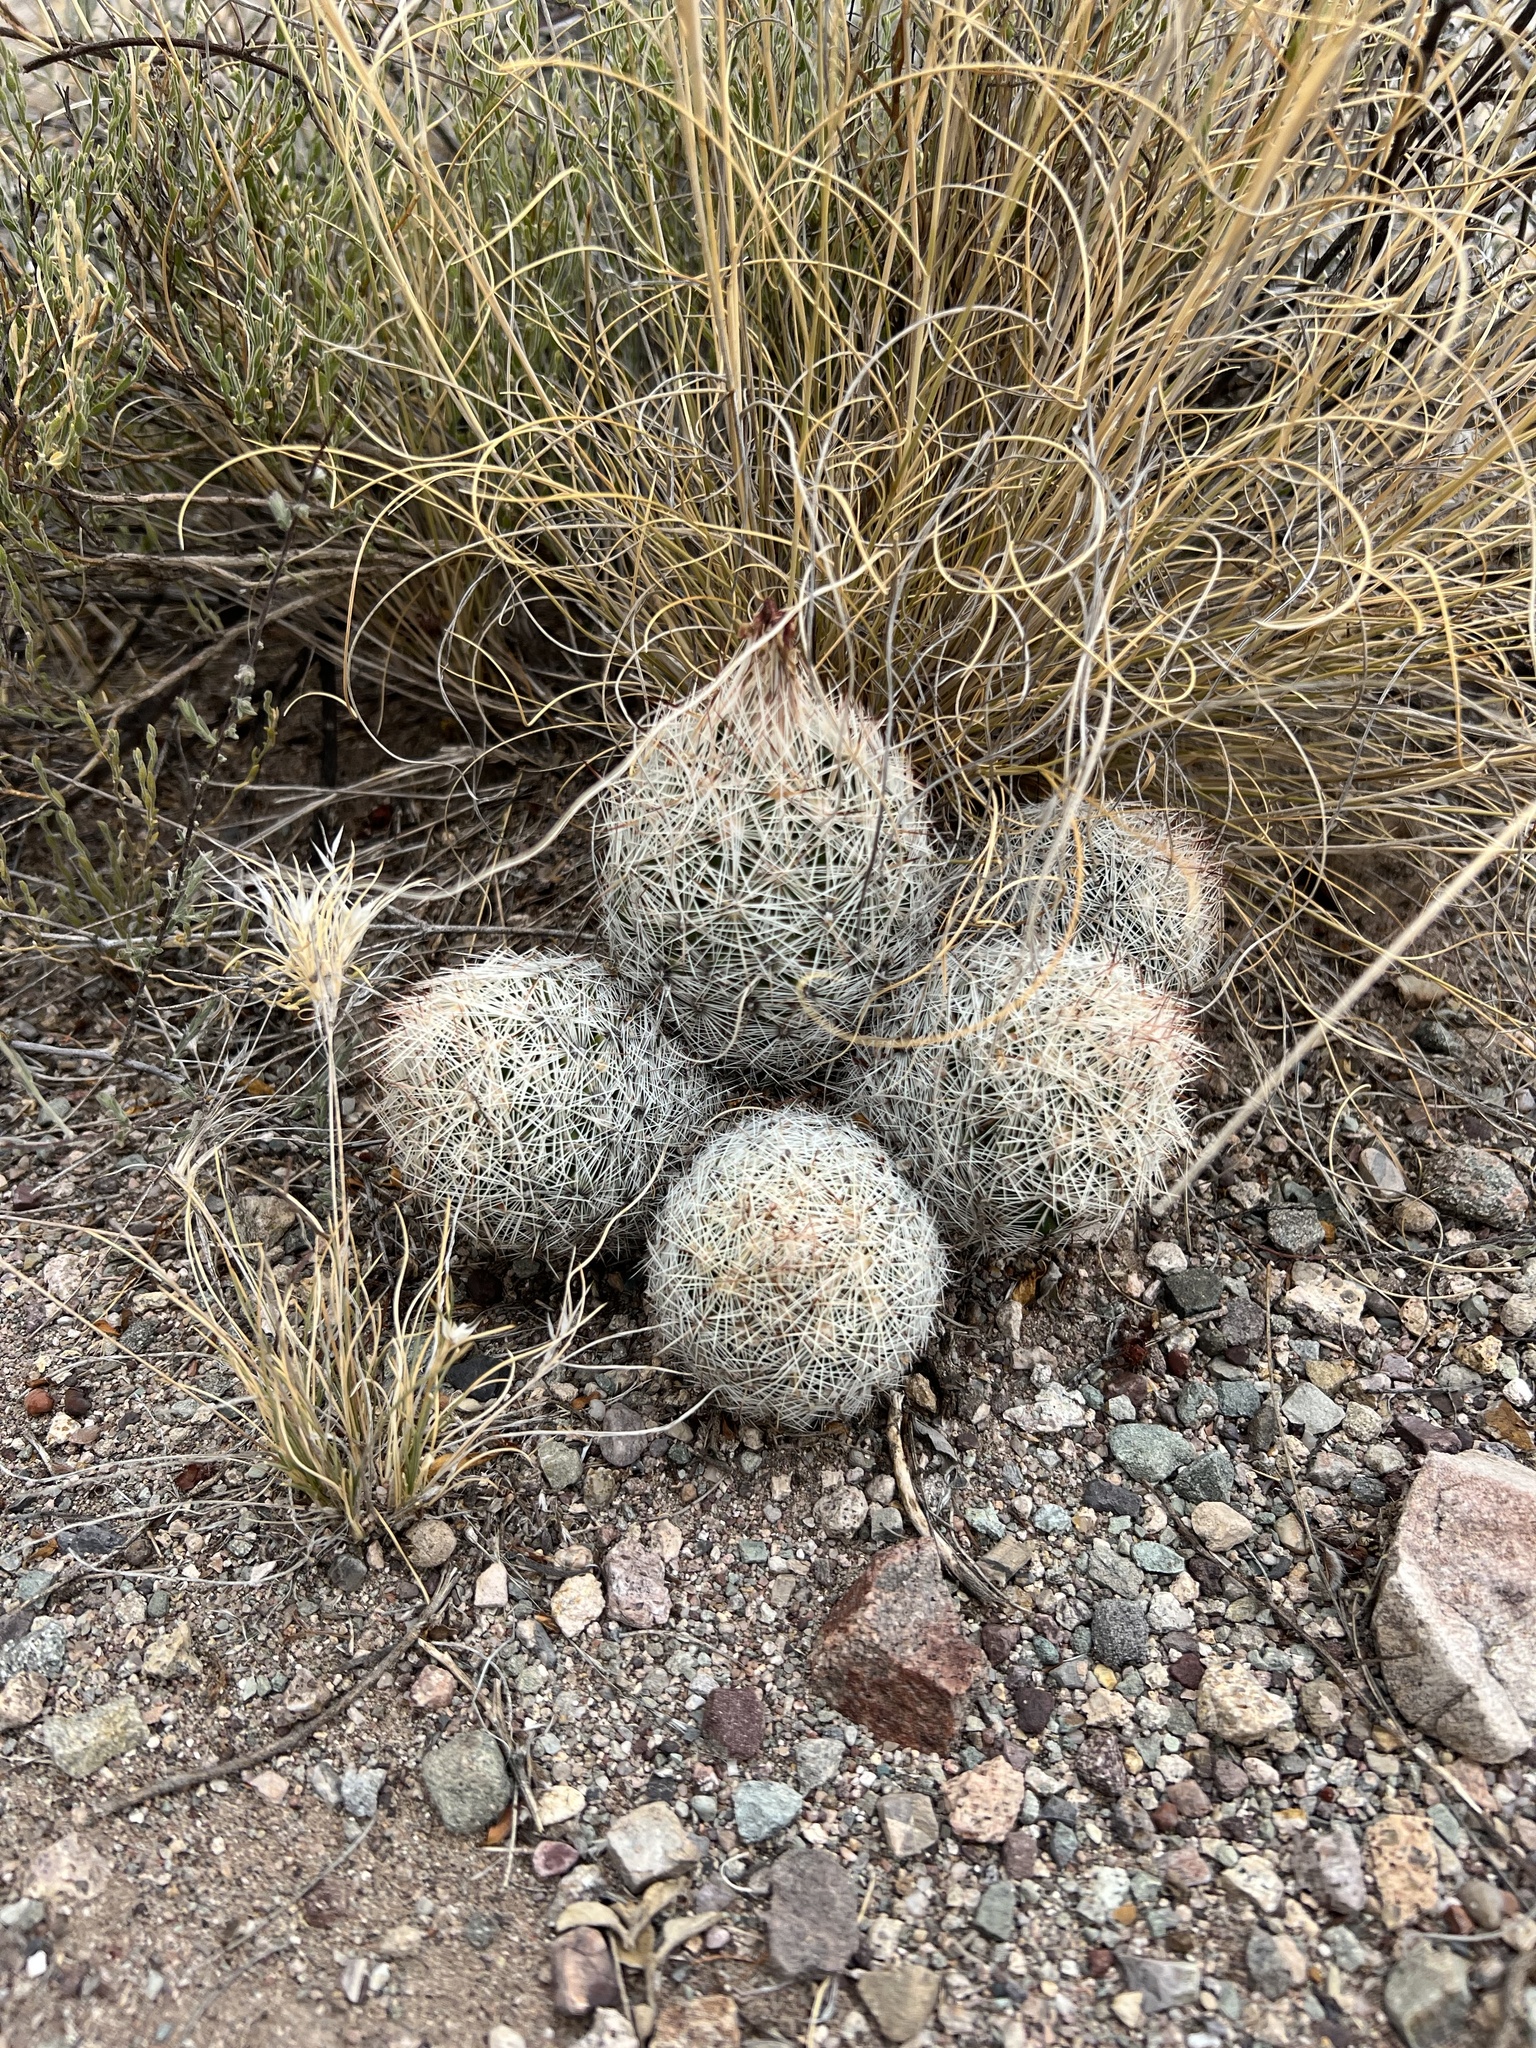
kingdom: Plantae
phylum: Tracheophyta
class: Magnoliopsida
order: Caryophyllales
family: Cactaceae
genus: Pelecyphora
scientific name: Pelecyphora vivipara
